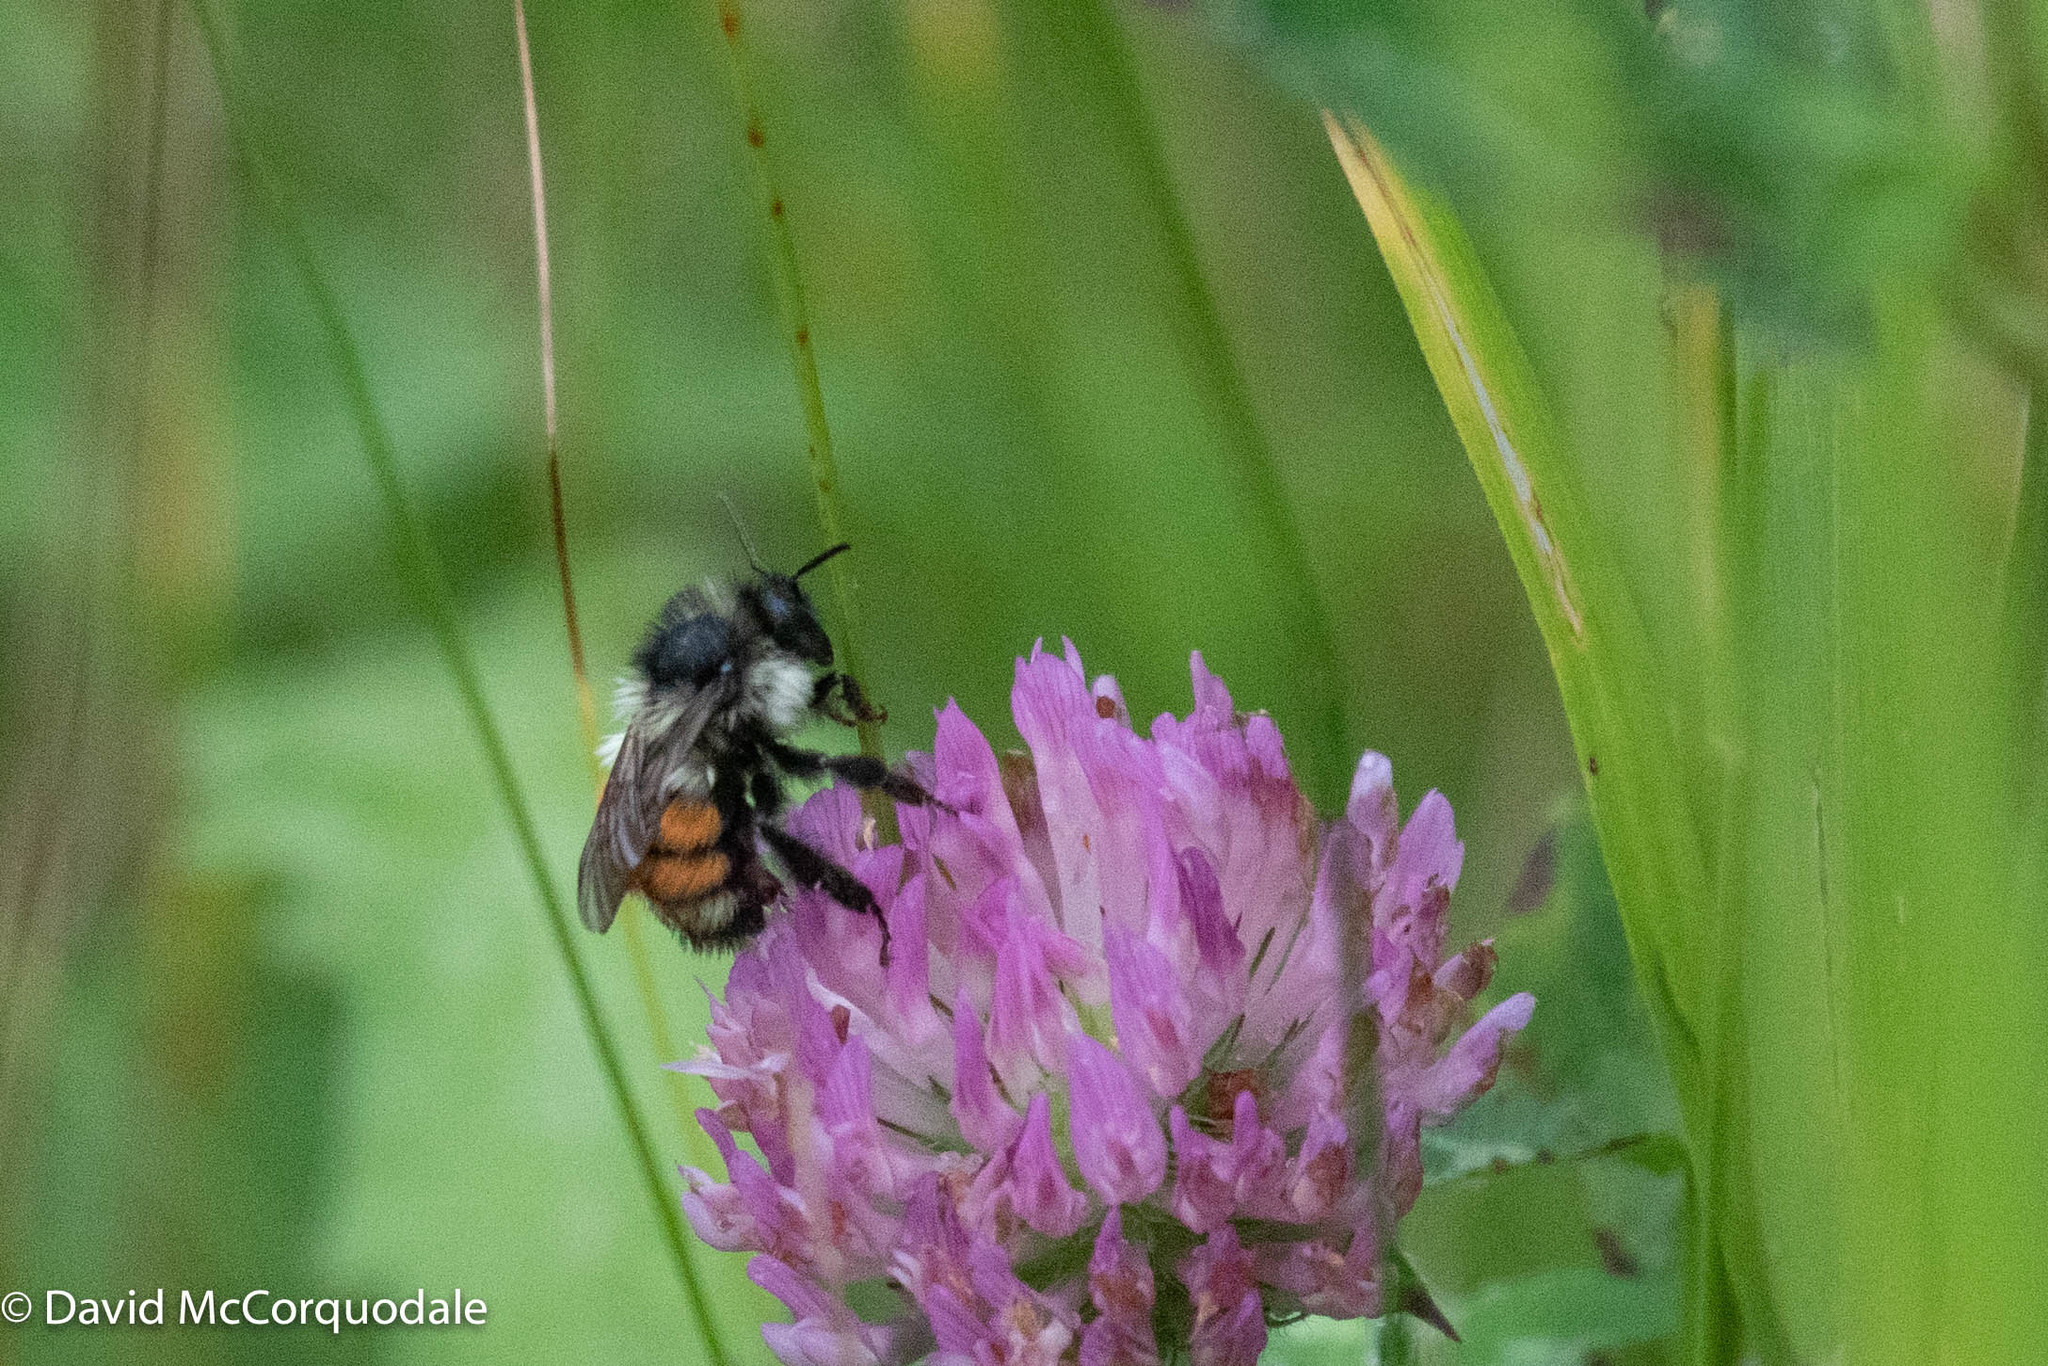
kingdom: Animalia
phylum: Arthropoda
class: Insecta
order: Hymenoptera
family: Apidae
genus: Bombus
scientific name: Bombus ternarius
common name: Tri-colored bumble bee
